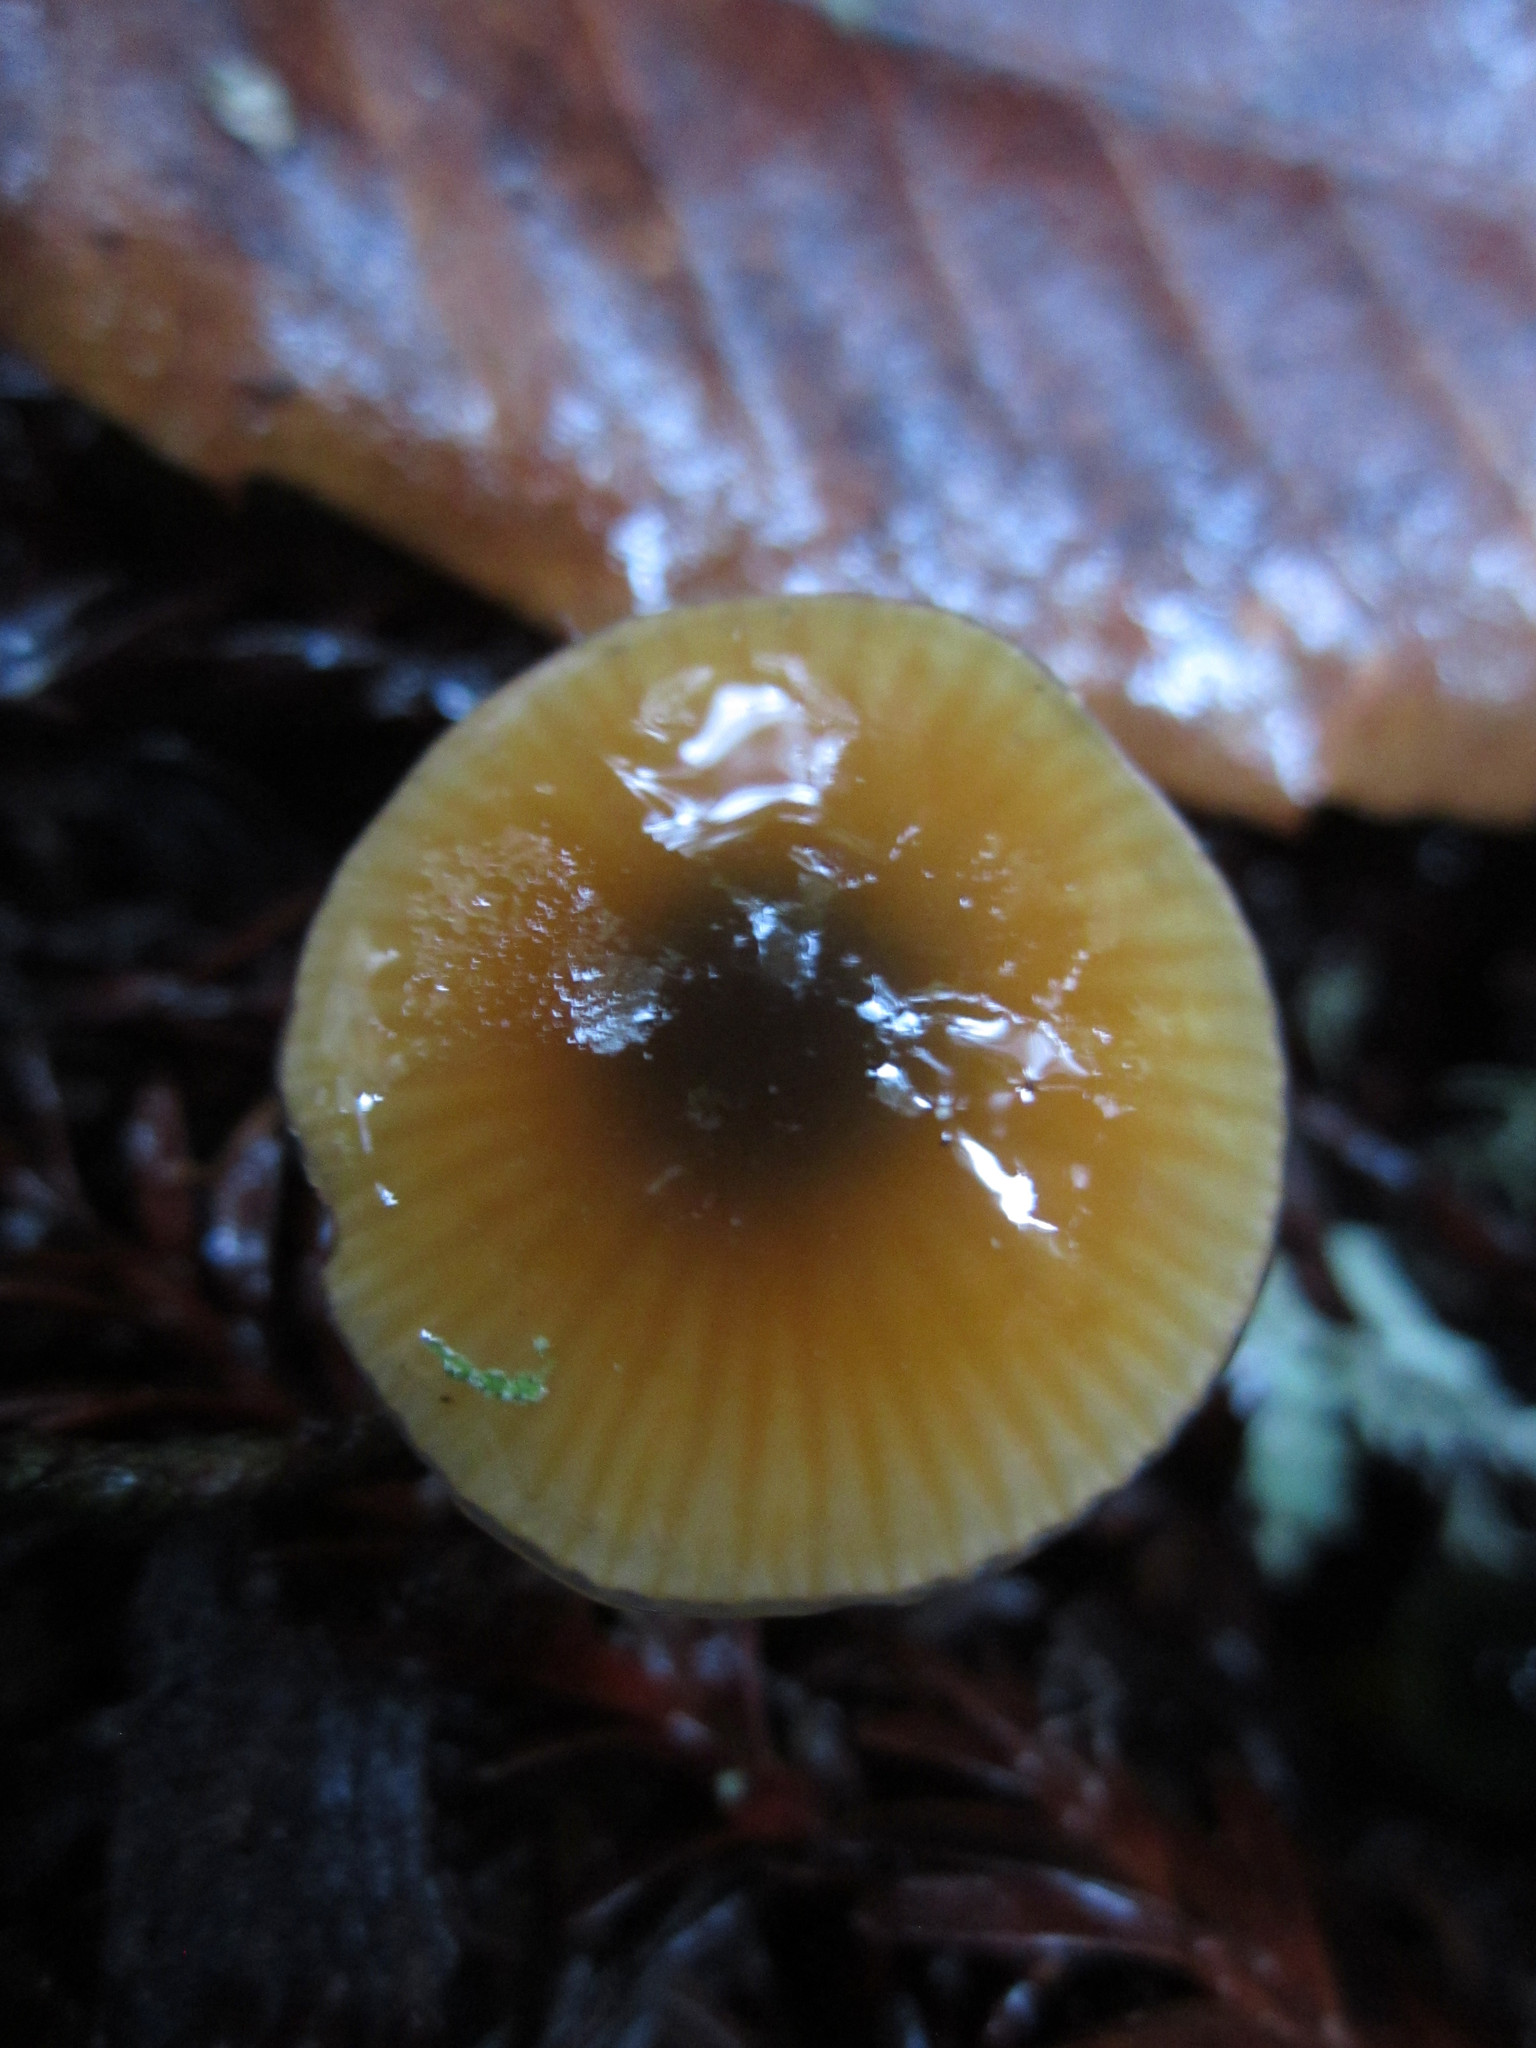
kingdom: Fungi
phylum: Basidiomycota
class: Agaricomycetes
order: Agaricales
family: Hygrophoraceae
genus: Gliophorus
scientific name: Gliophorus psittacinus
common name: Parrot wax-cap
